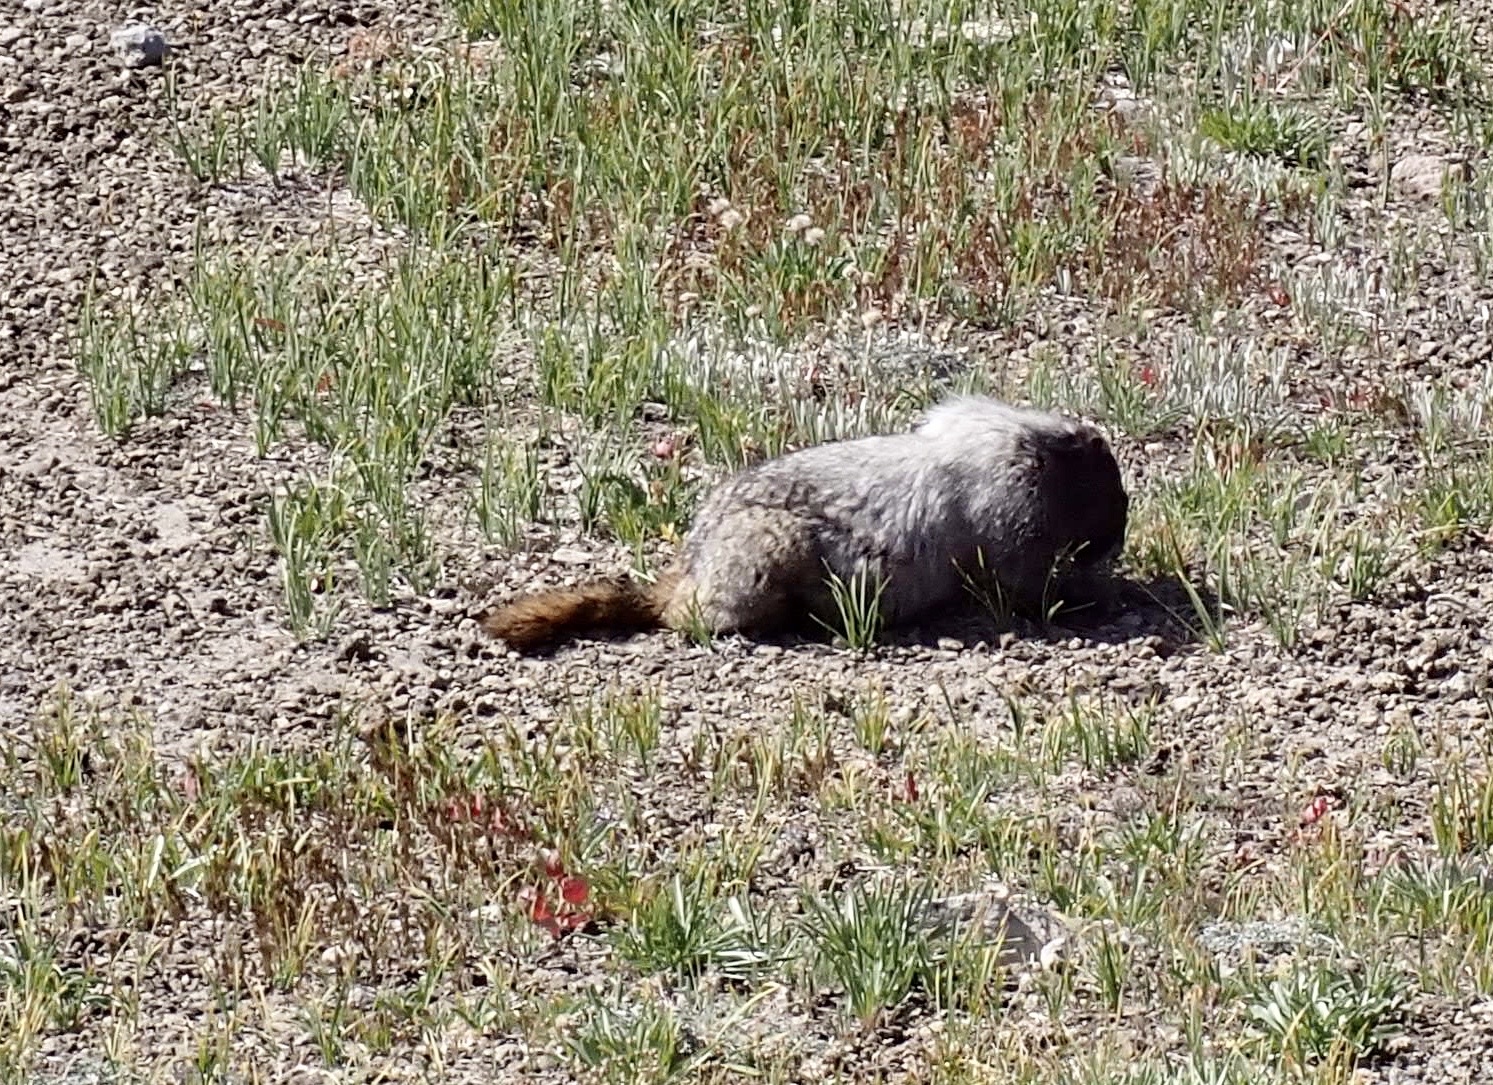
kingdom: Animalia
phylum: Chordata
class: Mammalia
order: Rodentia
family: Sciuridae
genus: Marmota
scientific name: Marmota caligata
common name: Hoary marmot
